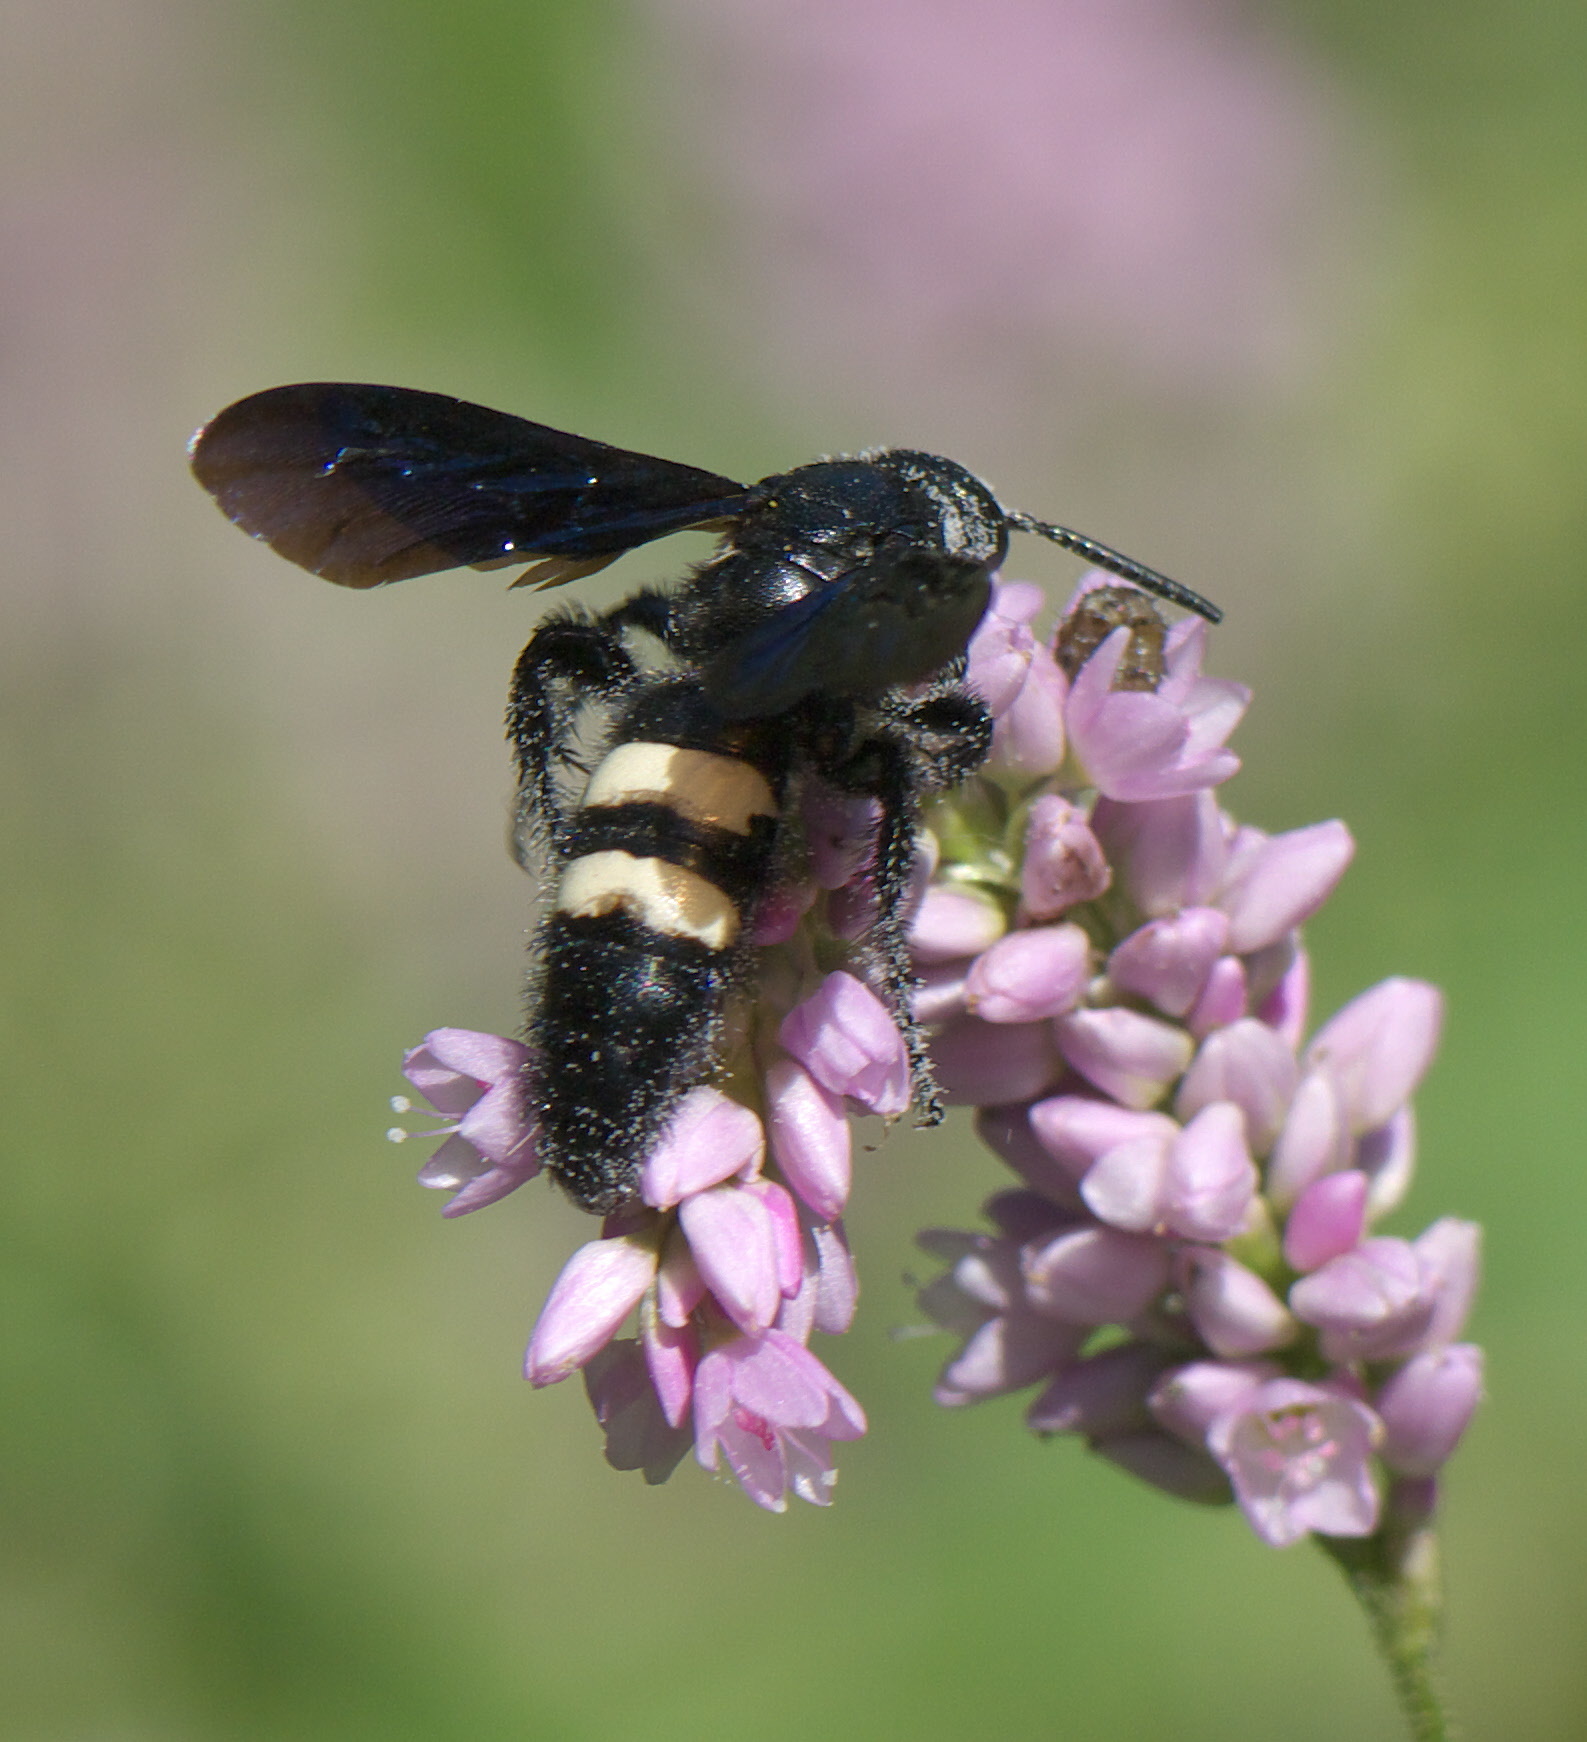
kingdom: Animalia
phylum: Arthropoda
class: Insecta
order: Hymenoptera
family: Scoliidae
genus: Scolia
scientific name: Scolia bicincta
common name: Double-banded scoliid wasp
